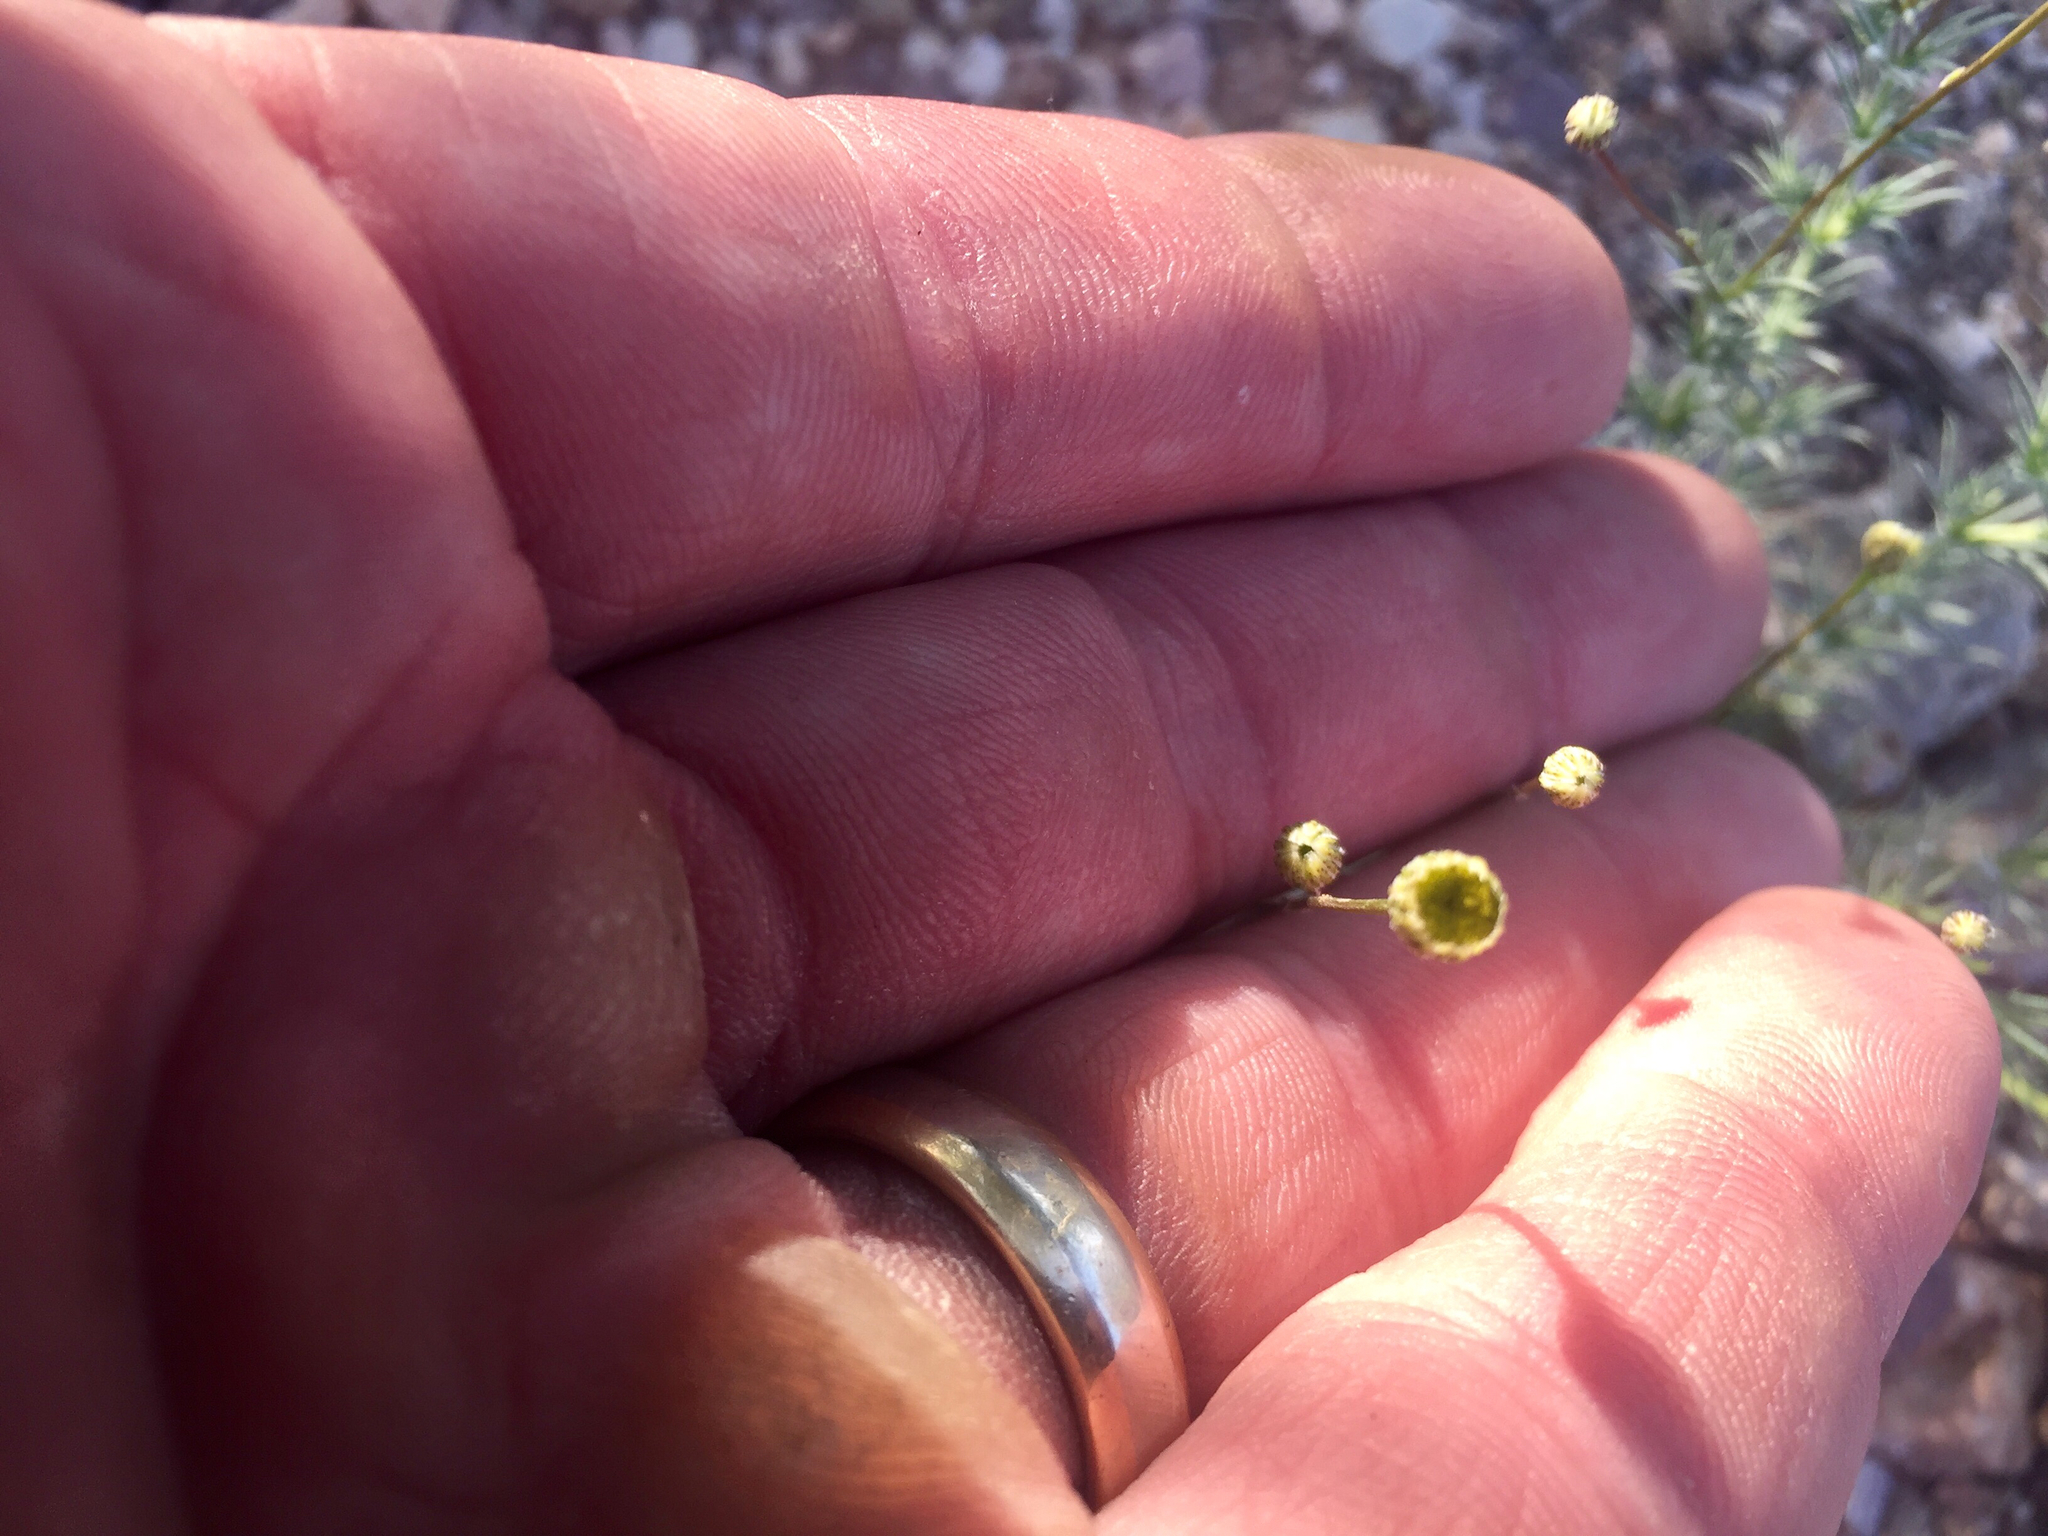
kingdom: Plantae
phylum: Tracheophyta
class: Magnoliopsida
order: Asterales
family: Asteraceae
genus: Thymophylla
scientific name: Thymophylla pentachaeta
